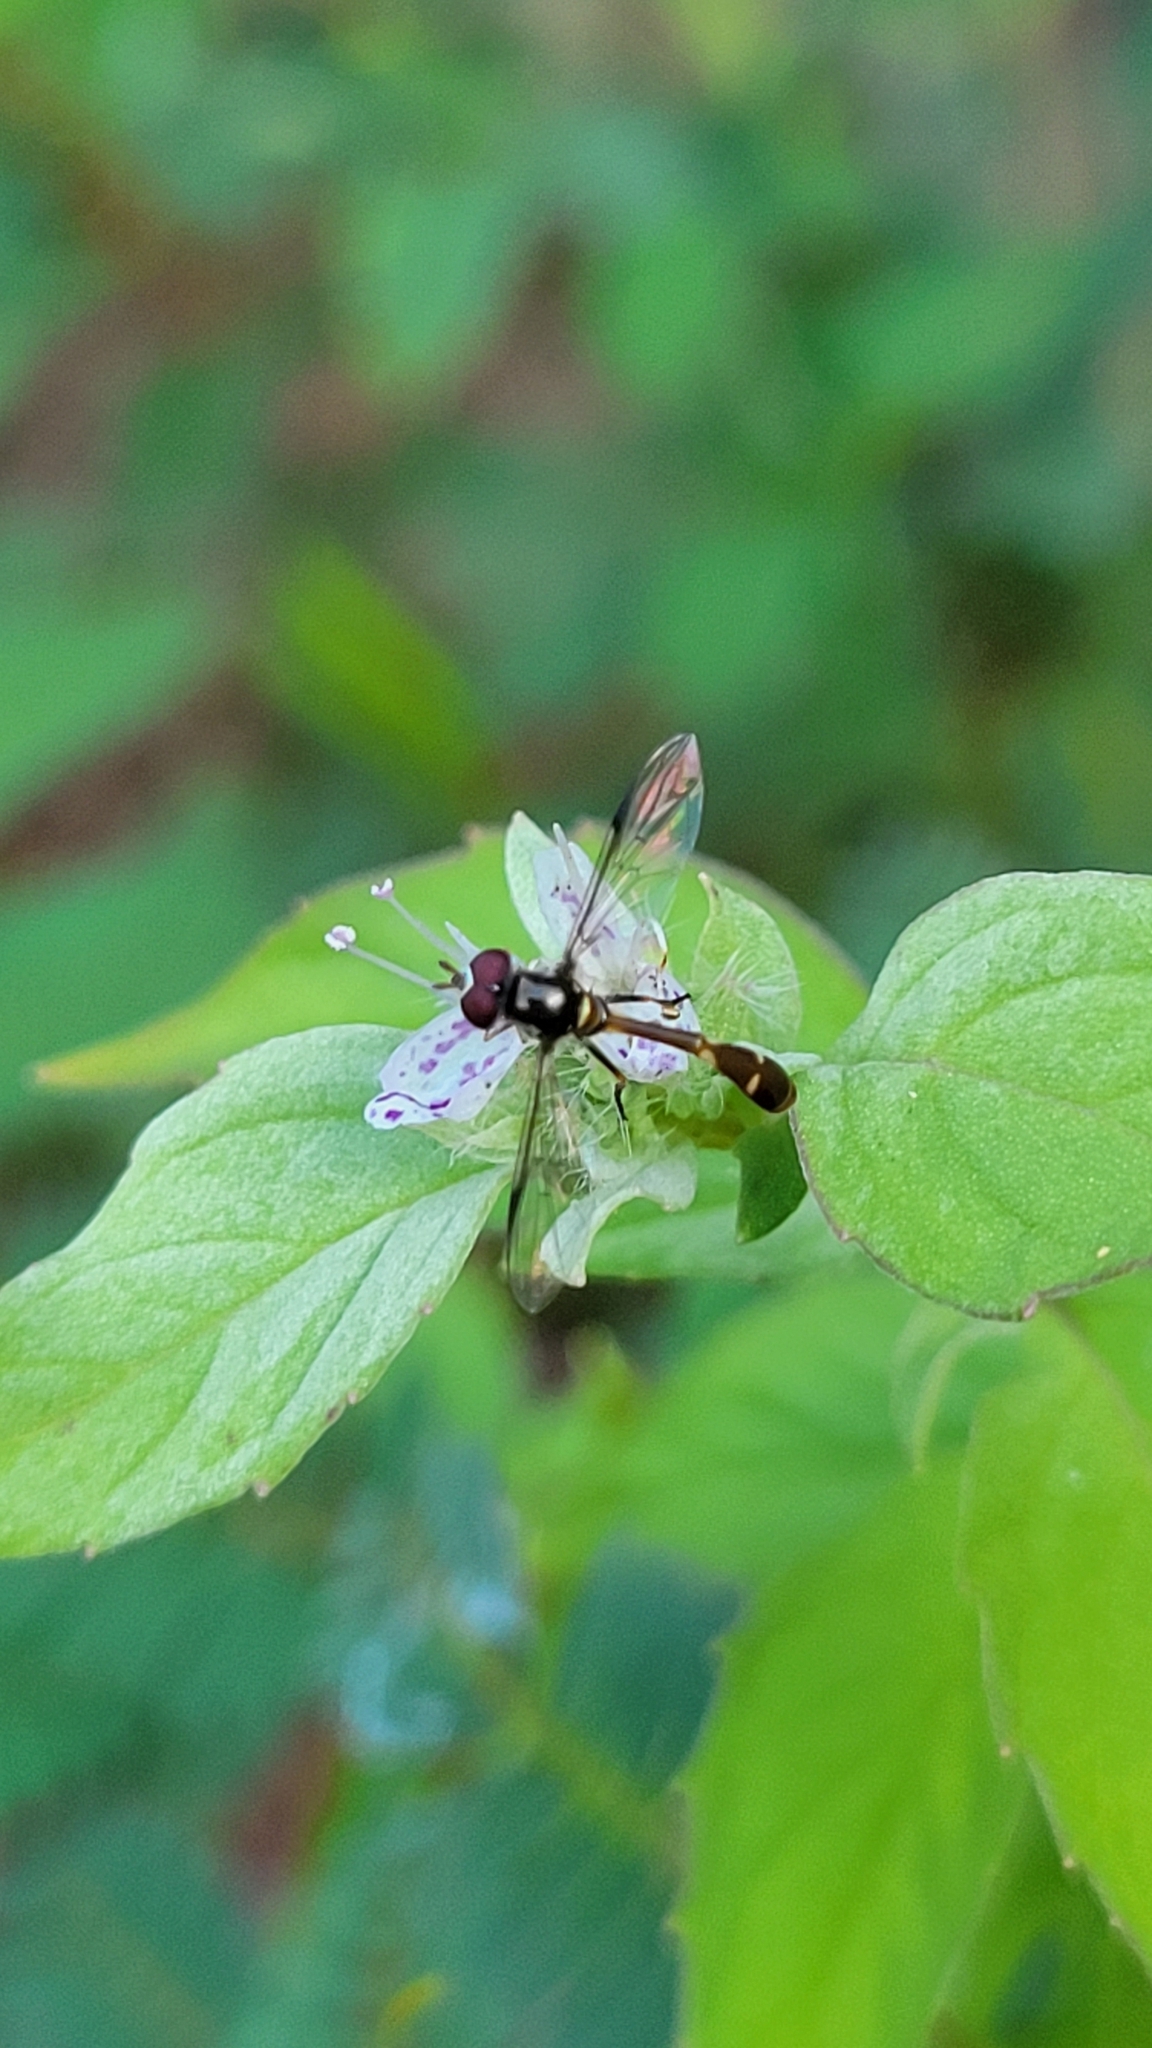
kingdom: Animalia
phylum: Arthropoda
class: Insecta
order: Diptera
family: Syrphidae
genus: Dioprosopa
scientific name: Dioprosopa clavatus
